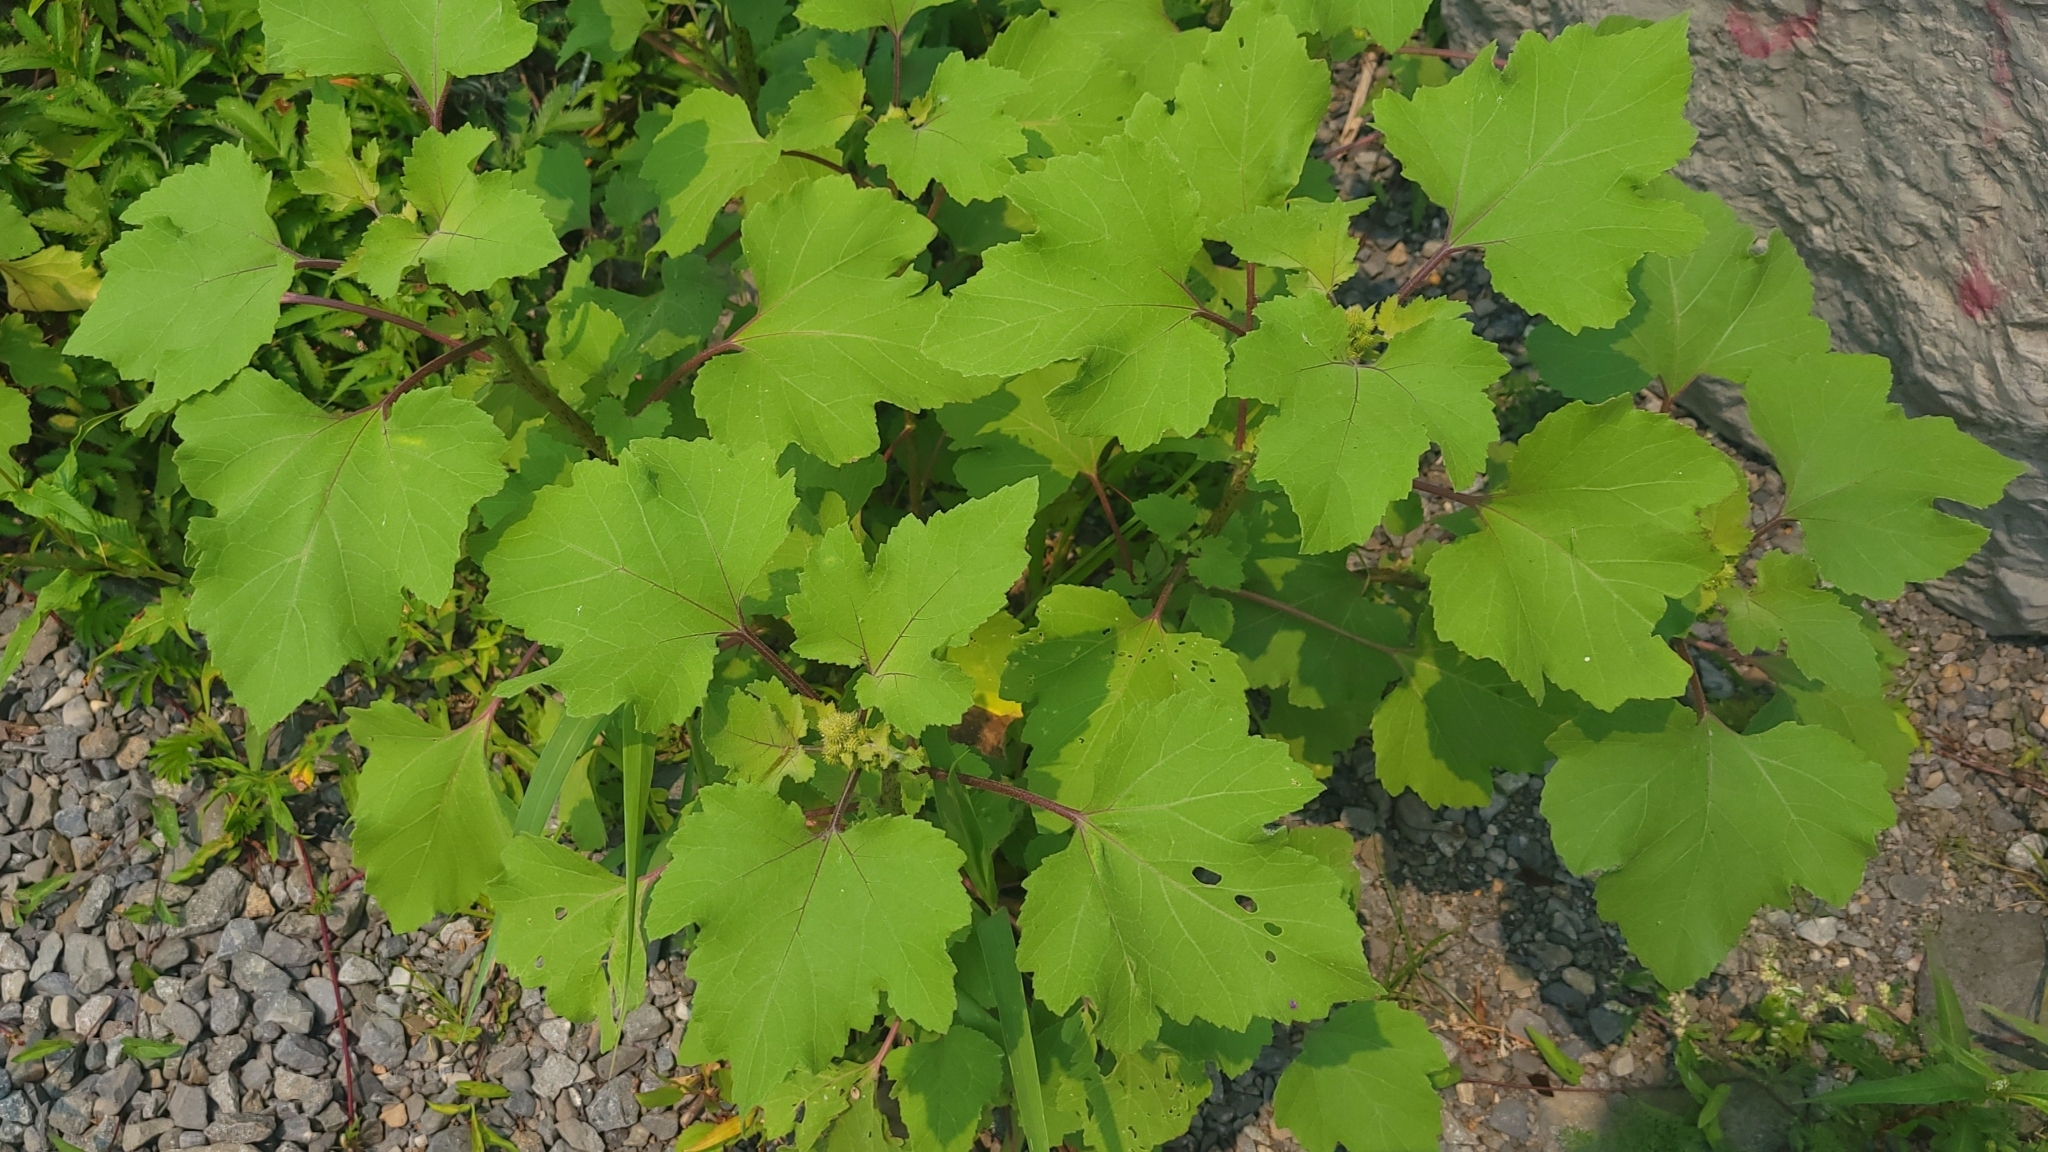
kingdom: Plantae
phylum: Tracheophyta
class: Magnoliopsida
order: Asterales
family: Asteraceae
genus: Xanthium
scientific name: Xanthium strumarium
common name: Rough cocklebur
